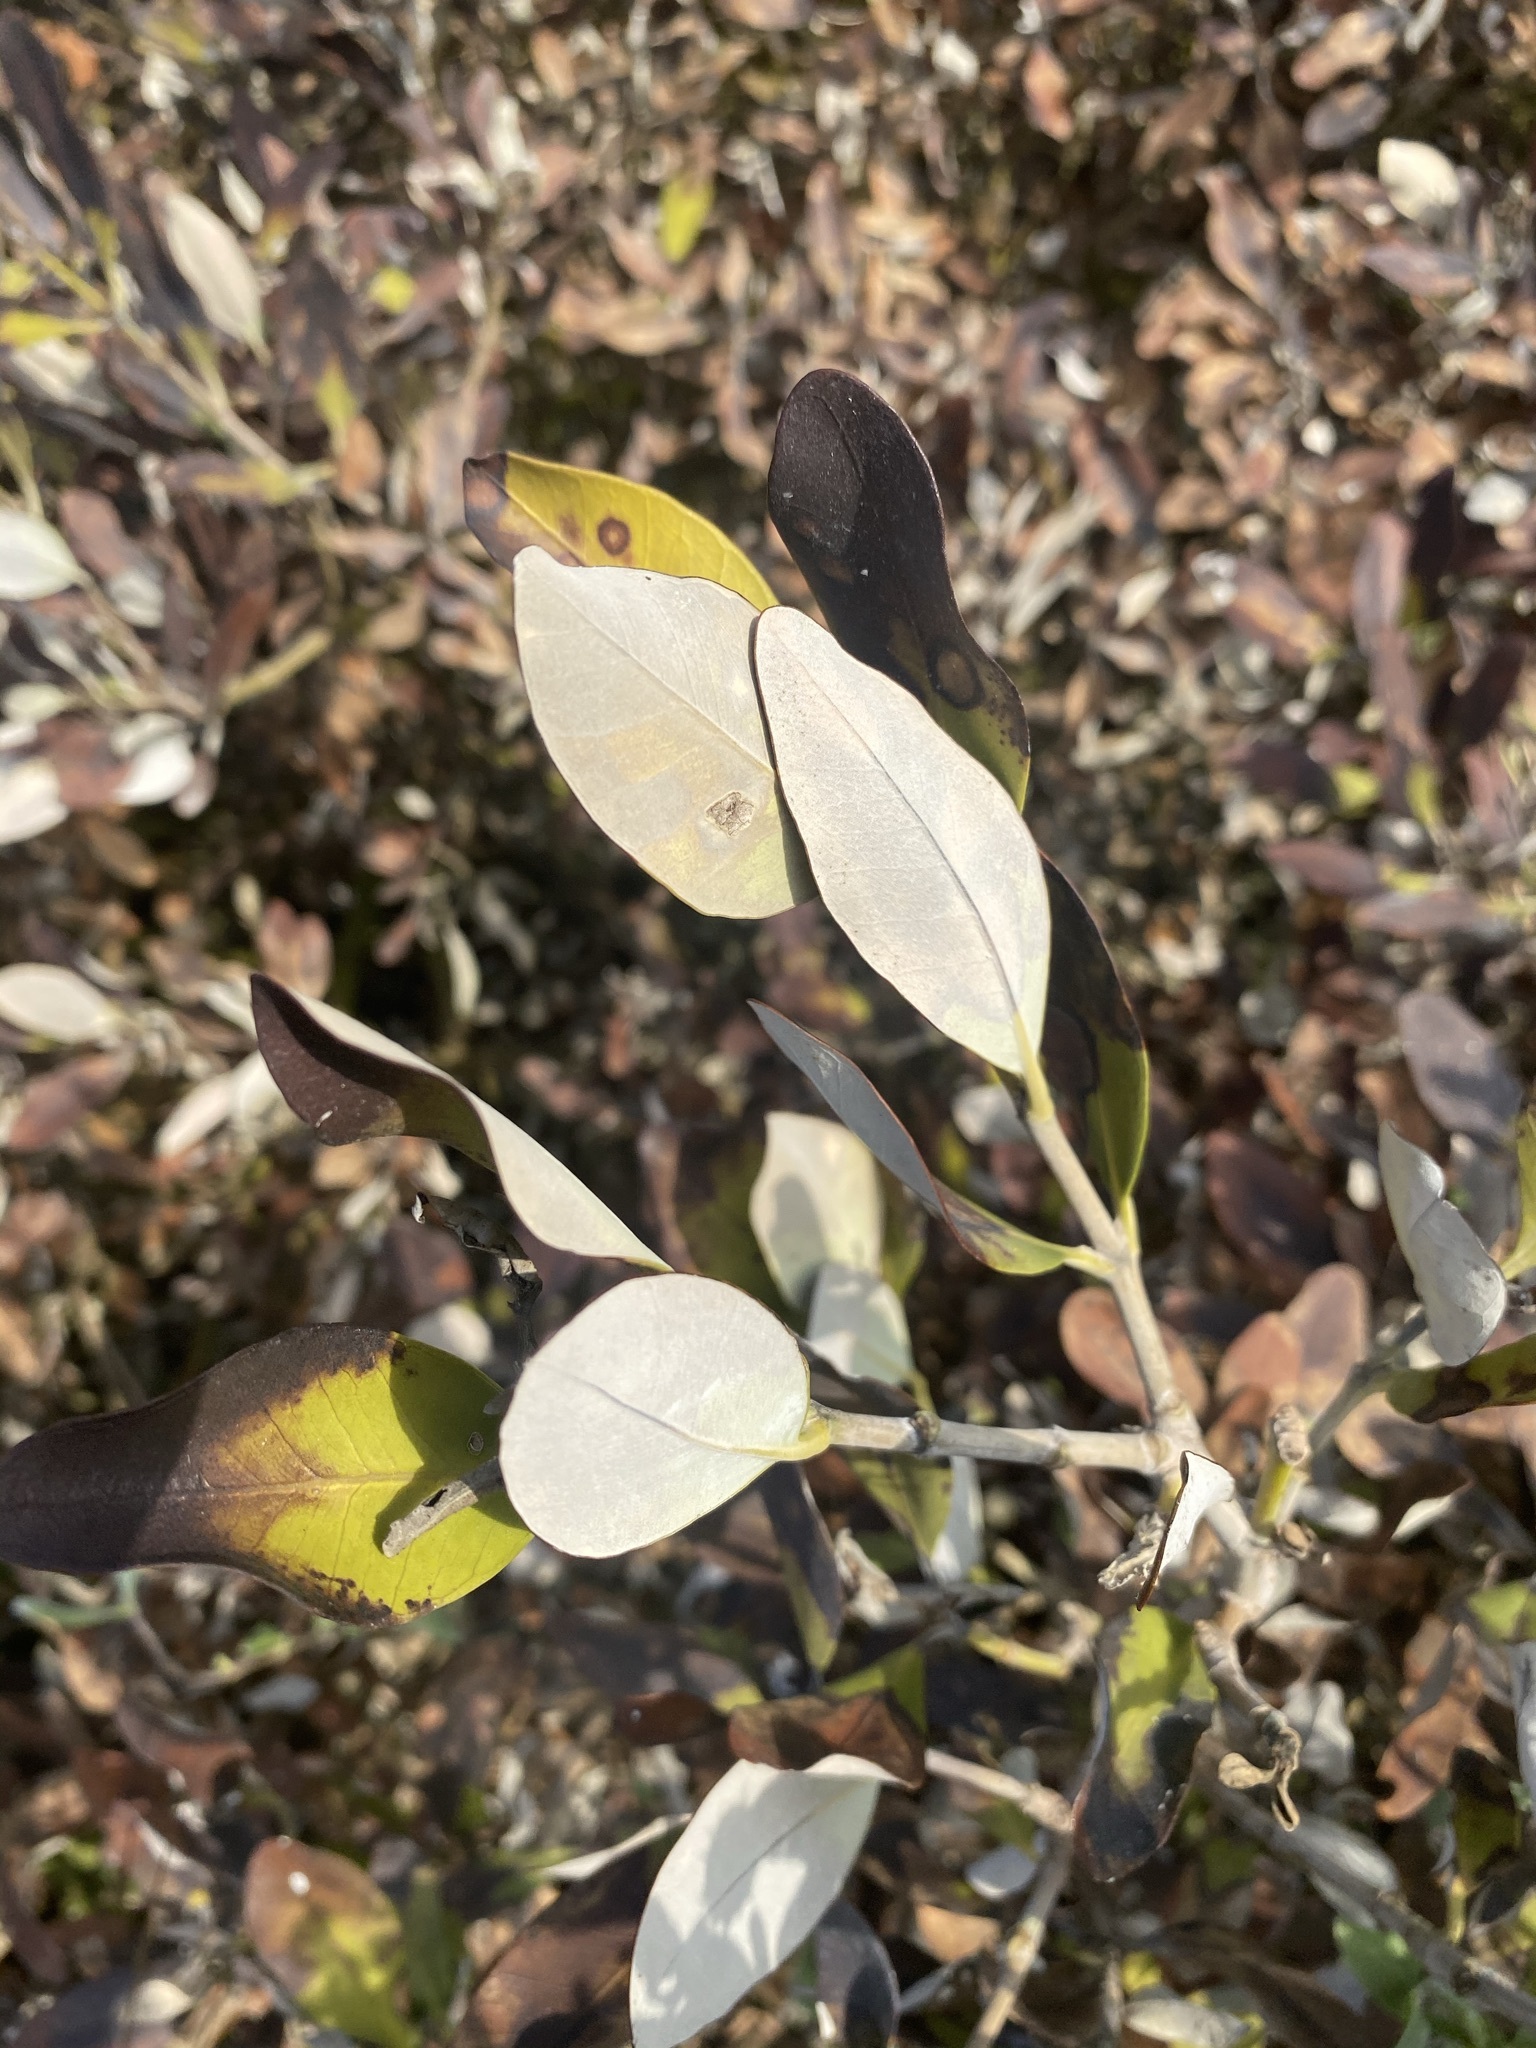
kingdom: Plantae
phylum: Tracheophyta
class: Magnoliopsida
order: Lamiales
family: Acanthaceae
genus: Avicennia
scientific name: Avicennia germinans
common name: Black mangrove
